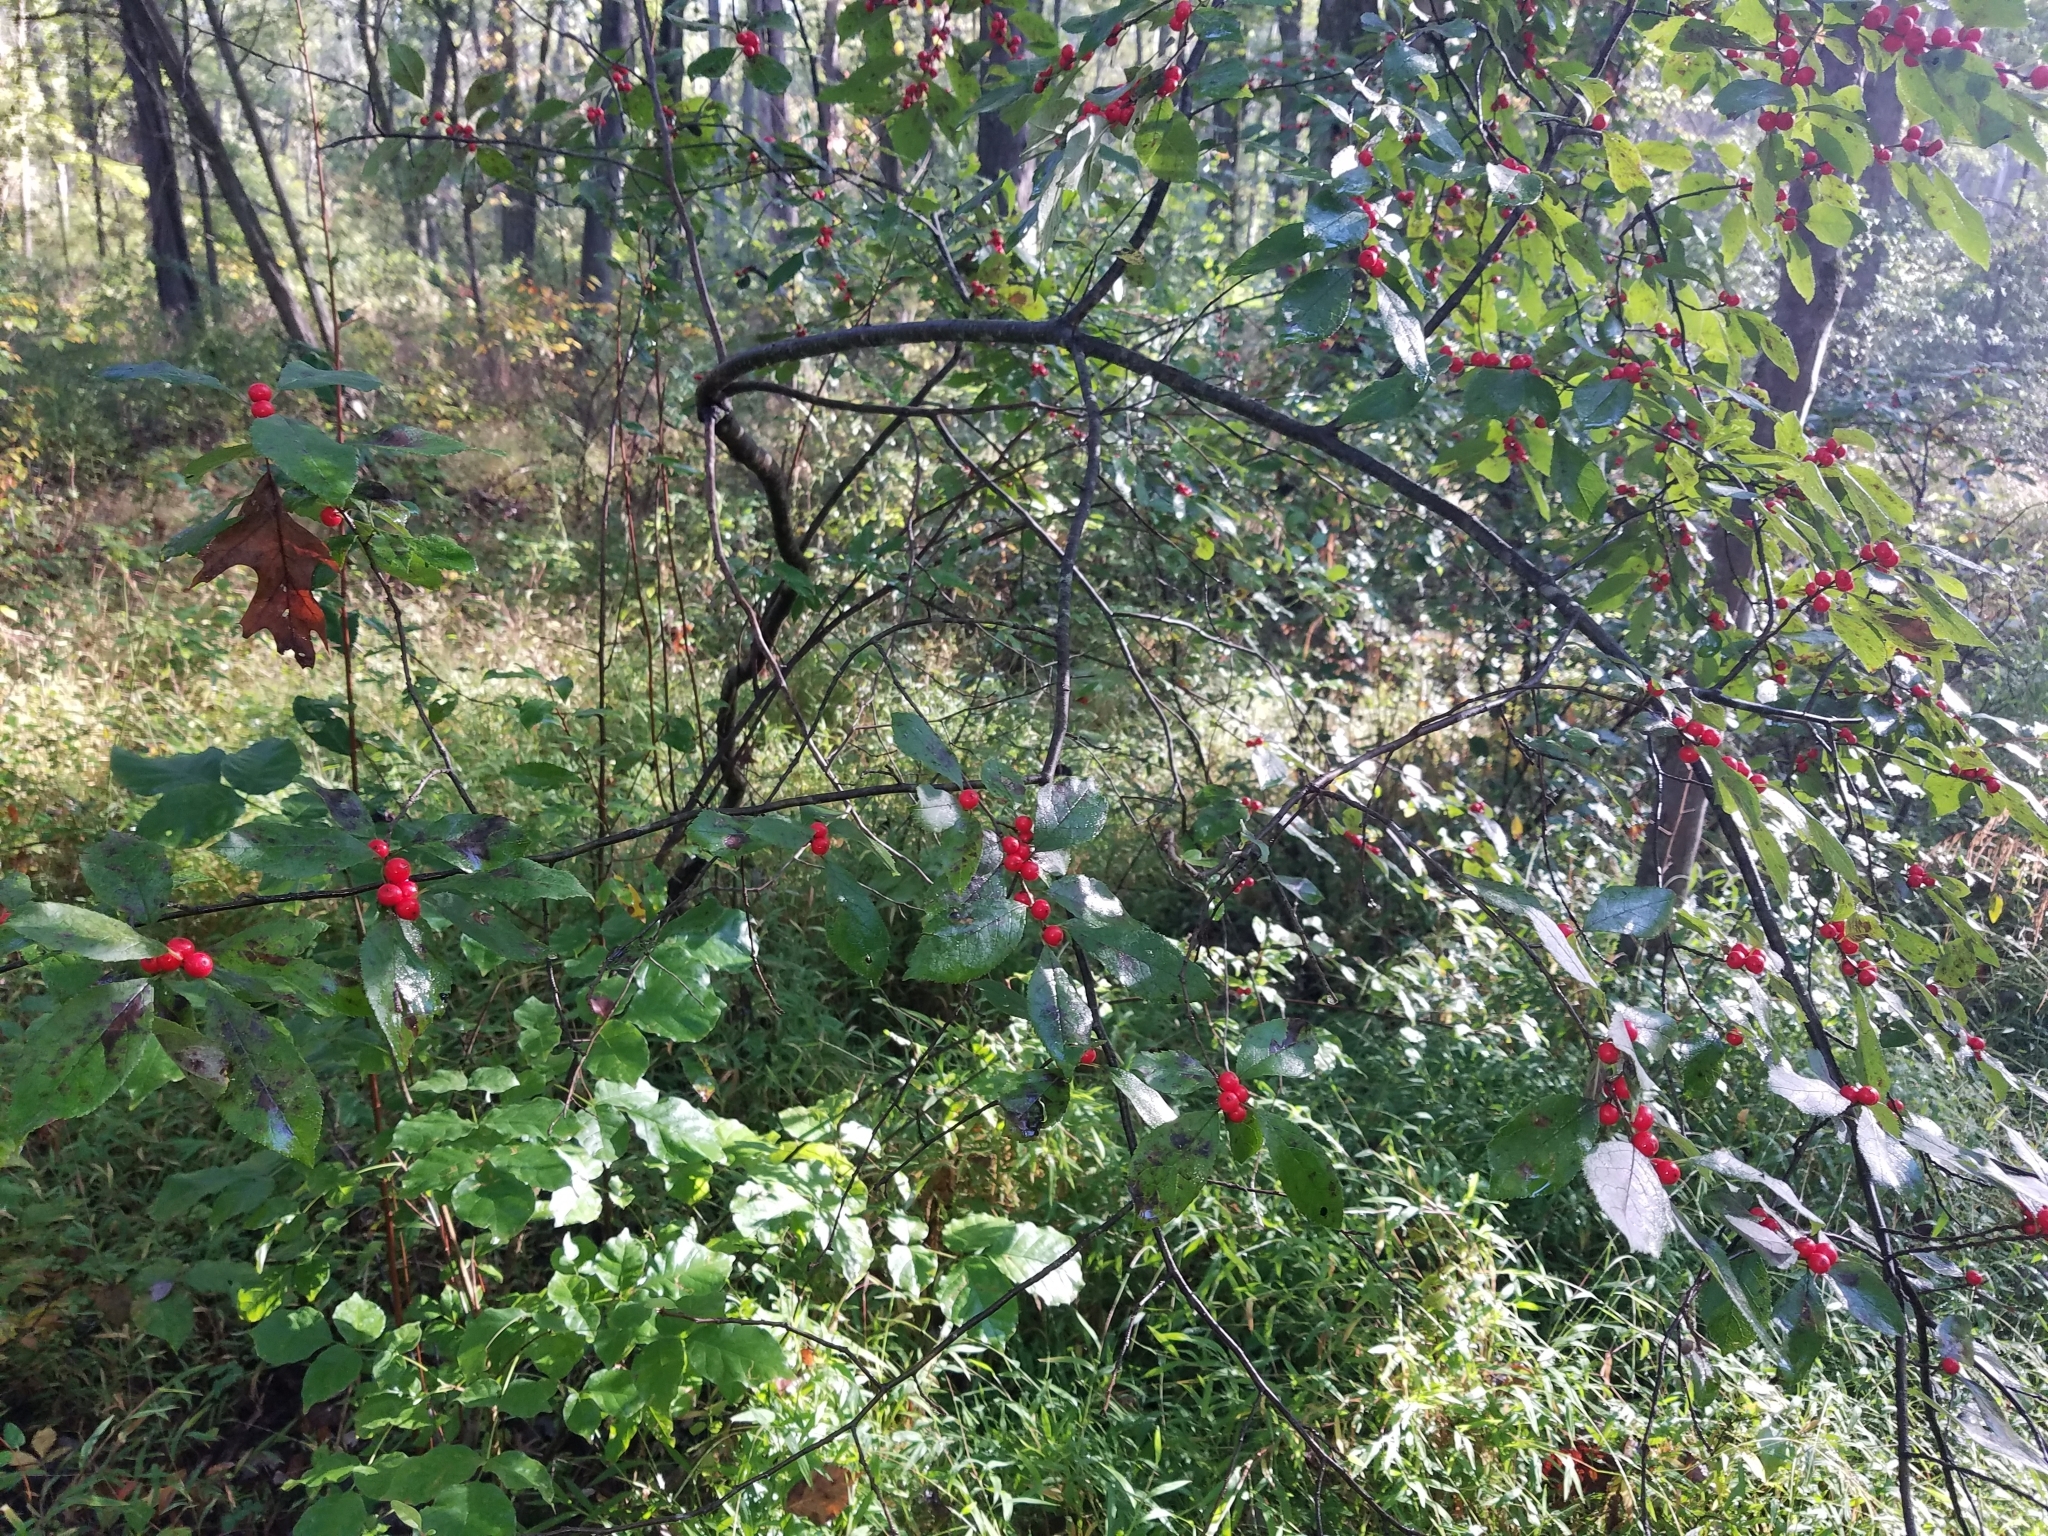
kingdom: Plantae
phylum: Tracheophyta
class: Magnoliopsida
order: Aquifoliales
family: Aquifoliaceae
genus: Ilex
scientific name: Ilex verticillata
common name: Virginia winterberry
